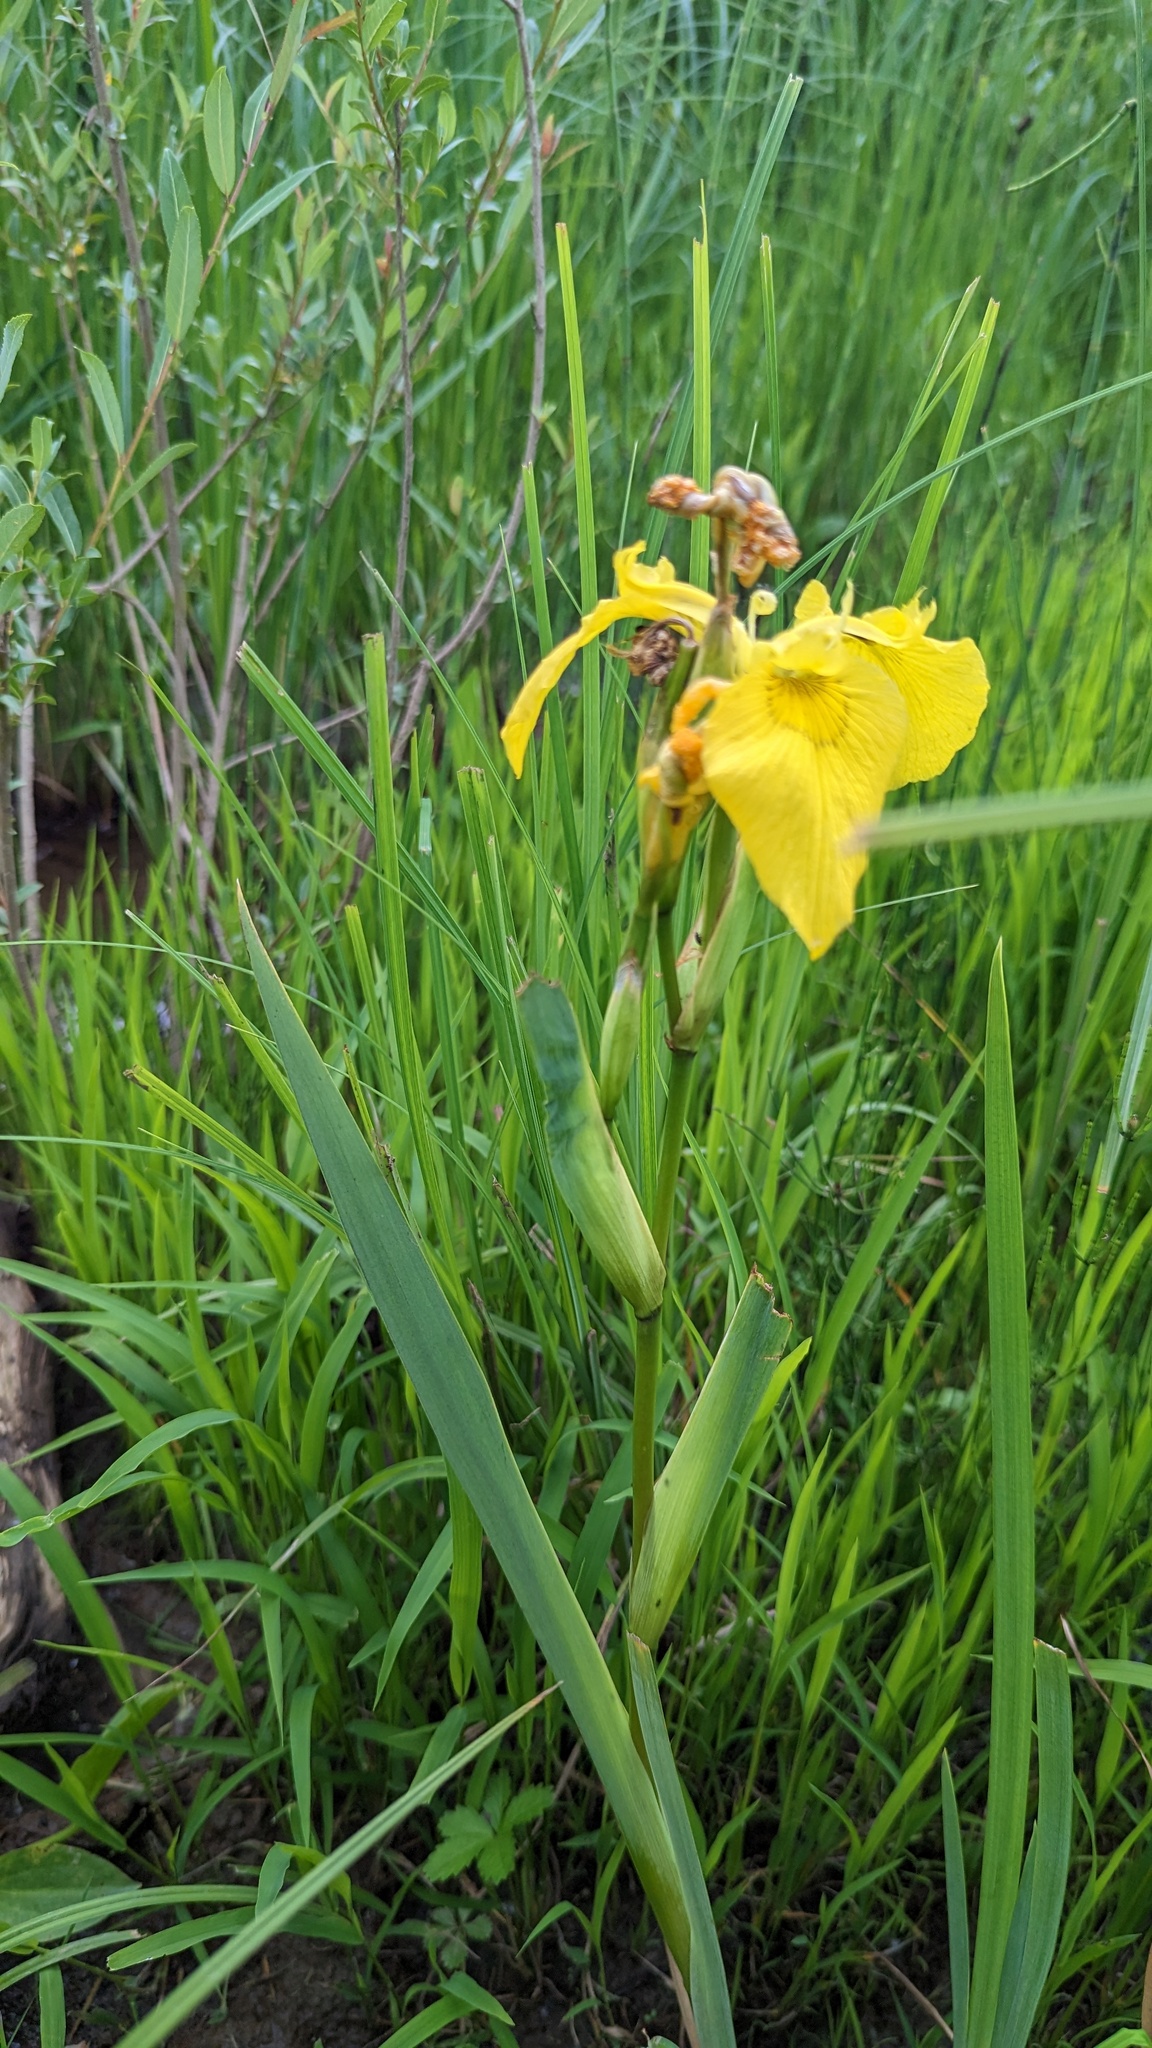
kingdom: Plantae
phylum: Tracheophyta
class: Liliopsida
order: Asparagales
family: Iridaceae
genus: Iris
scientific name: Iris pseudacorus
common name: Yellow flag
